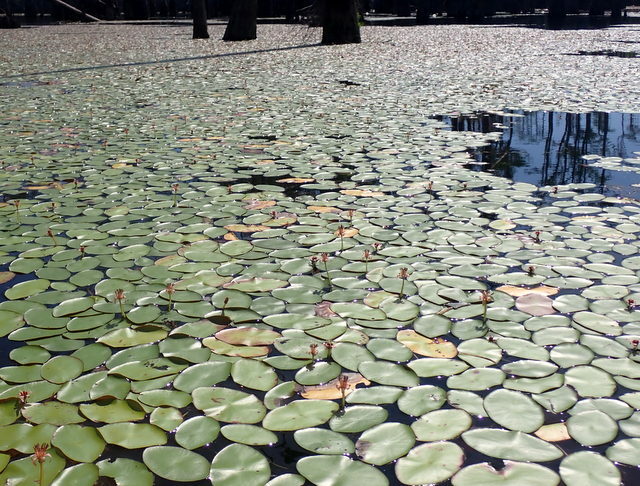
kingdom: Plantae
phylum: Tracheophyta
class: Magnoliopsida
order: Nymphaeales
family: Cabombaceae
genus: Brasenia
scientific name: Brasenia schreberi
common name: Water-shield
